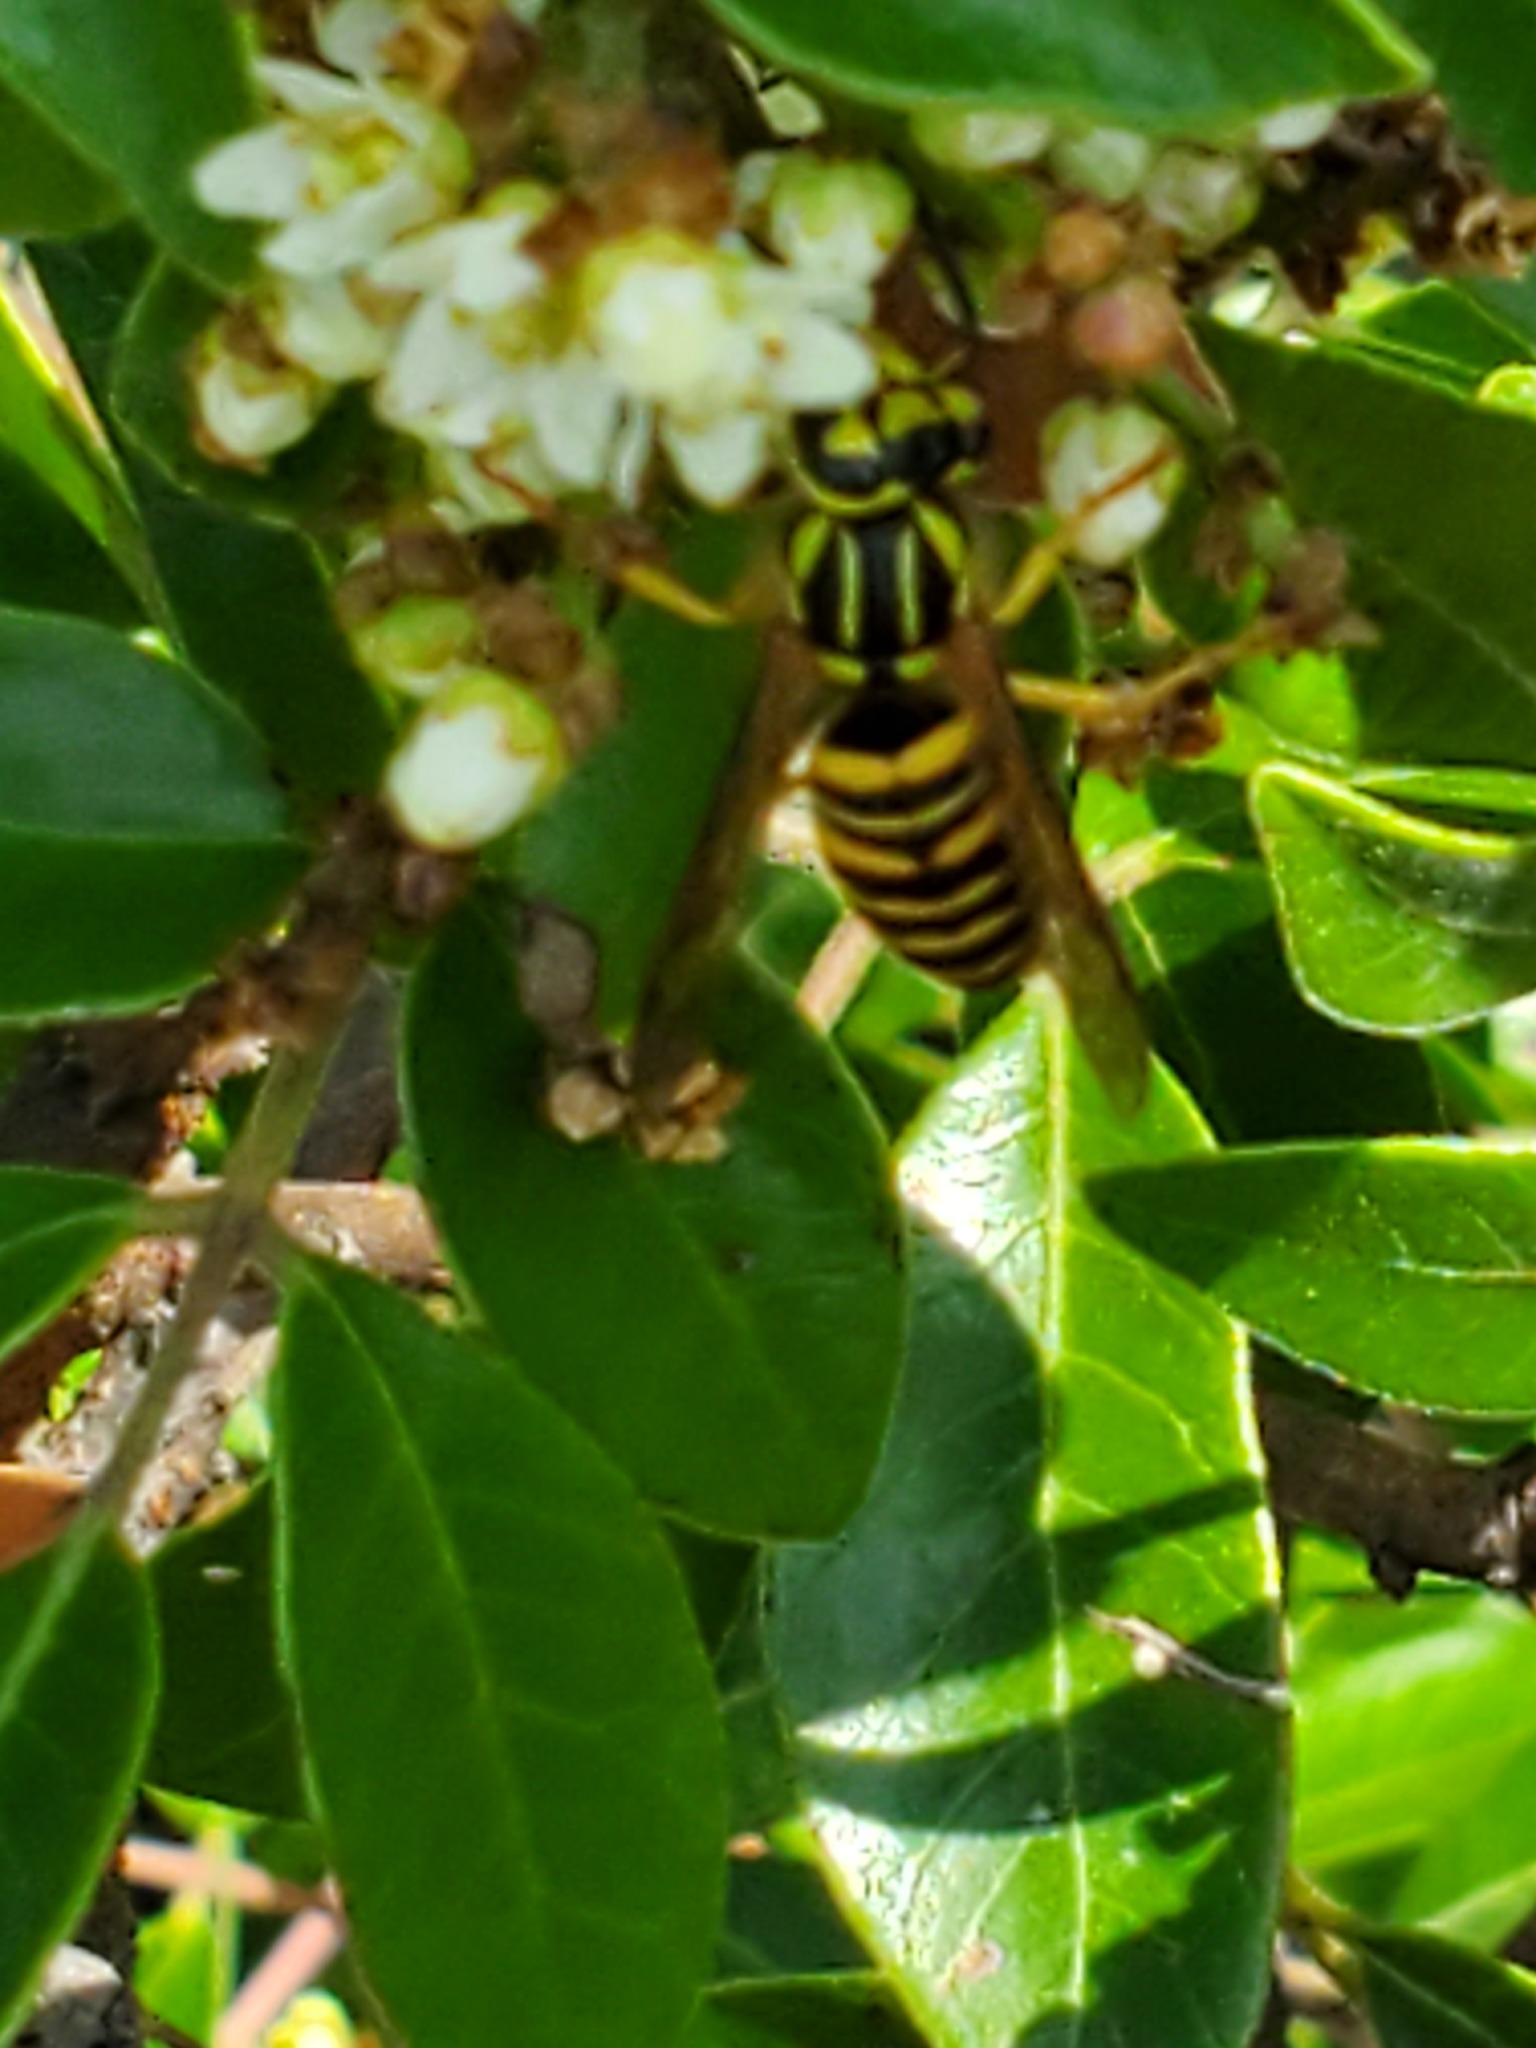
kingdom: Animalia
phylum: Arthropoda
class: Insecta
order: Hymenoptera
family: Vespidae
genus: Vespula
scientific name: Vespula squamosa
